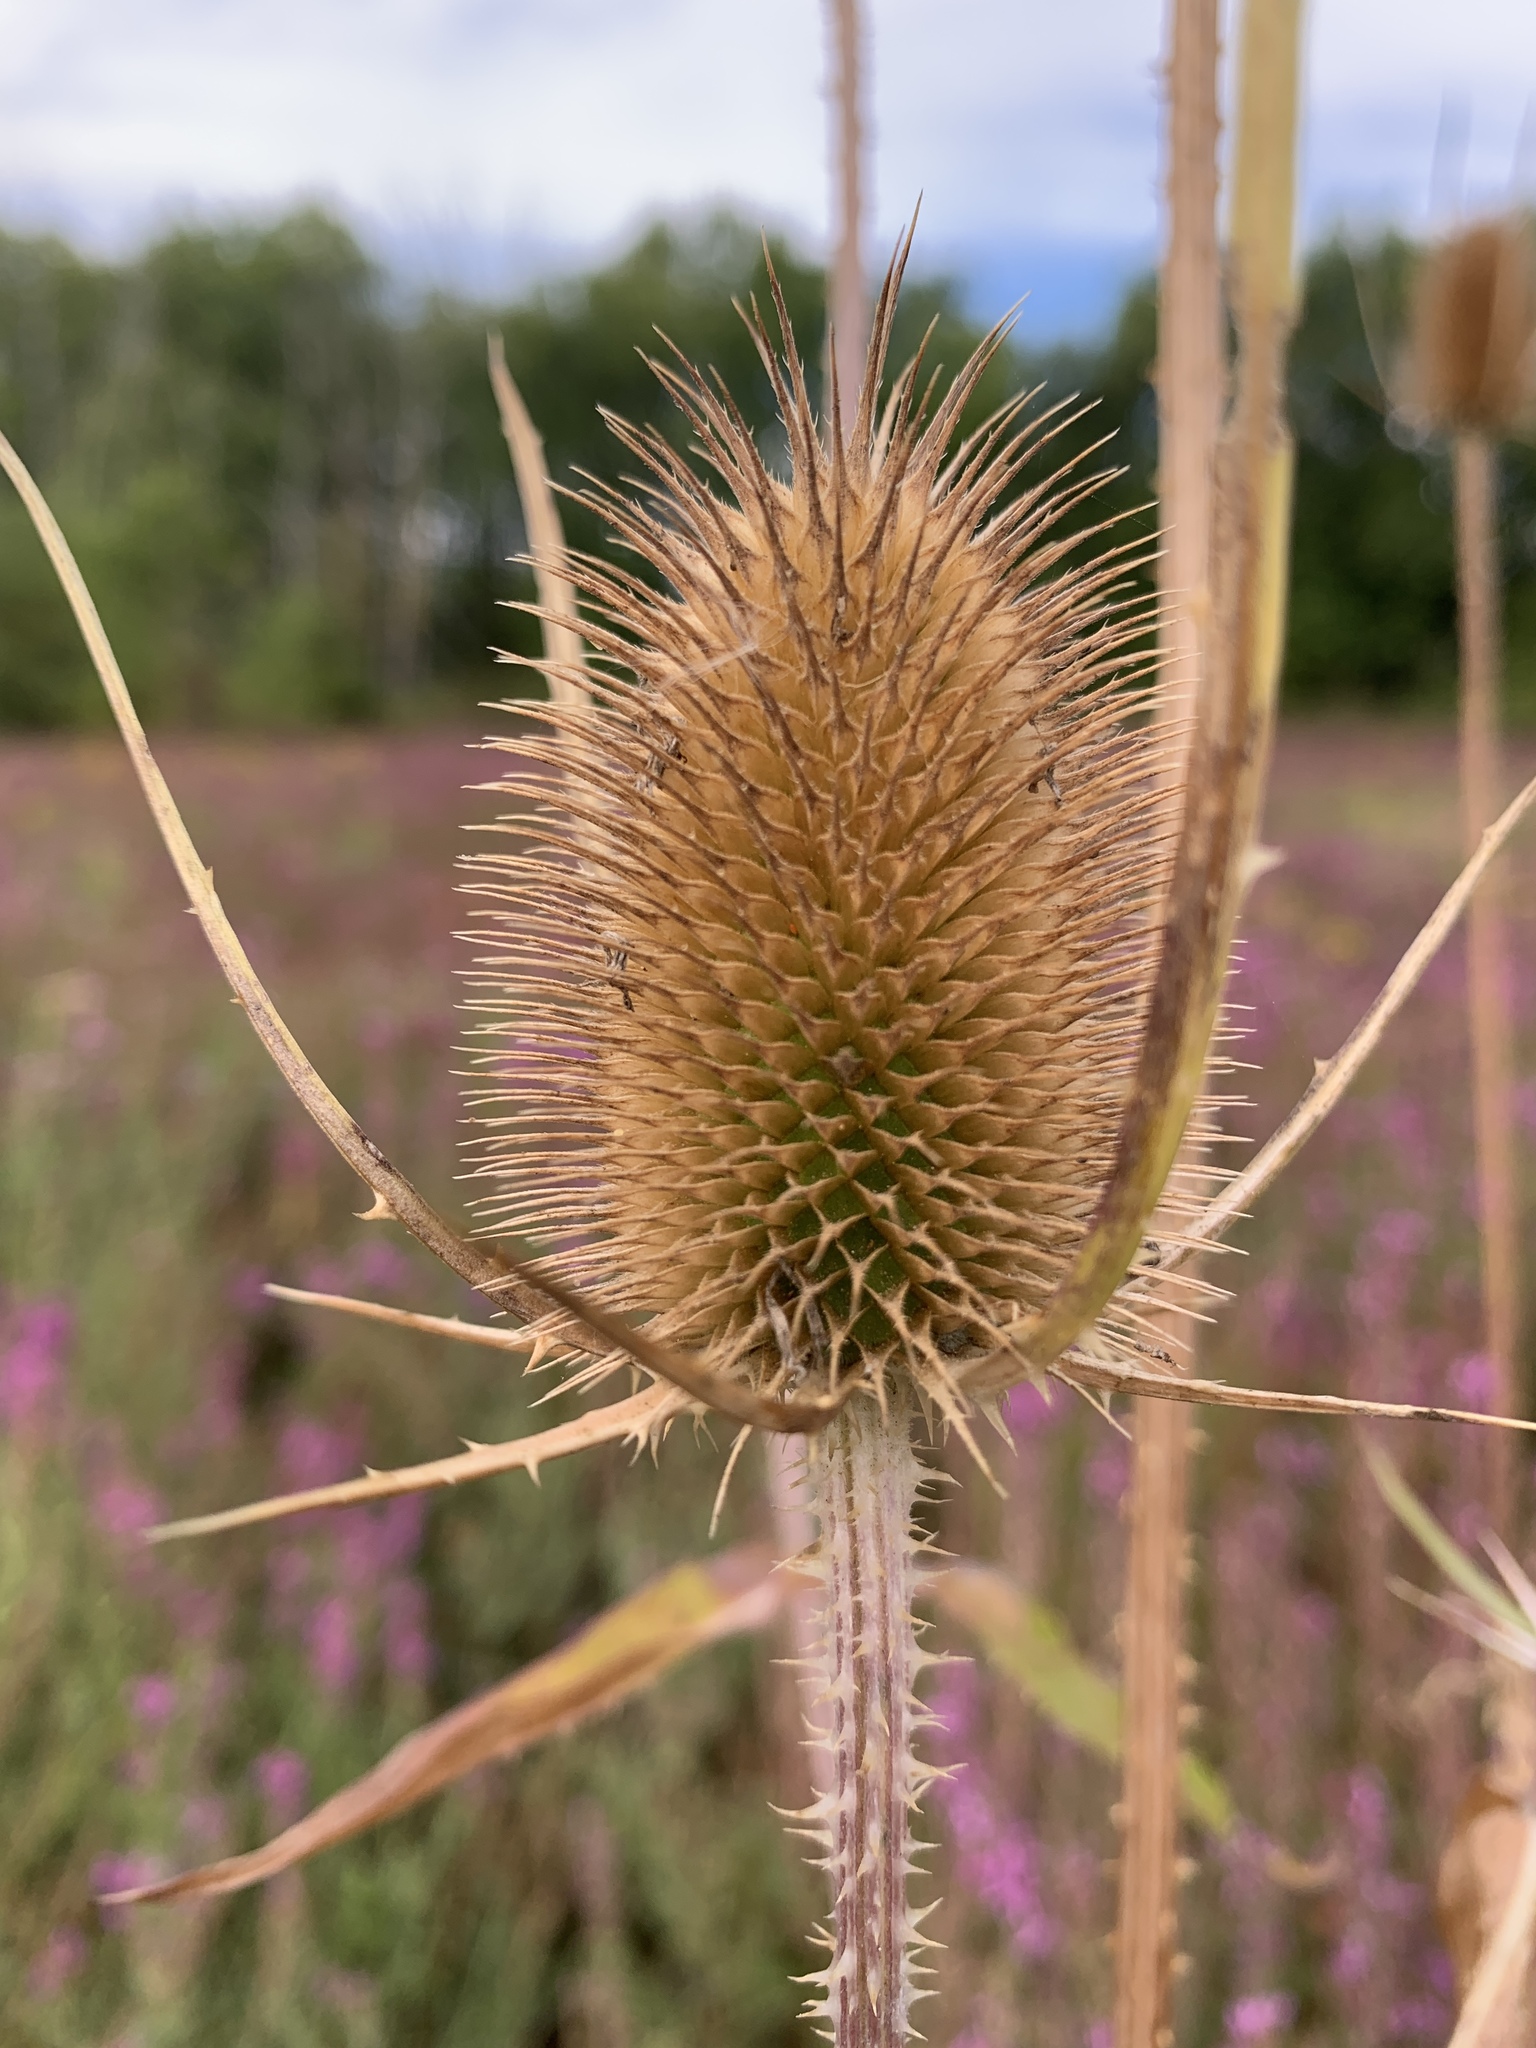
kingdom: Plantae
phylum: Tracheophyta
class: Magnoliopsida
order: Dipsacales
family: Caprifoliaceae
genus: Dipsacus
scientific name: Dipsacus fullonum
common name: Teasel
